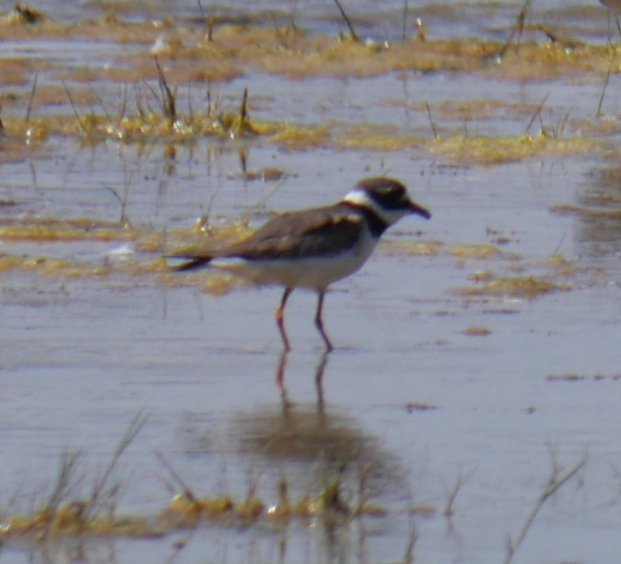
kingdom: Animalia
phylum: Chordata
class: Aves
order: Charadriiformes
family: Charadriidae
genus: Charadrius
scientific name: Charadrius hiaticula
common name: Common ringed plover
